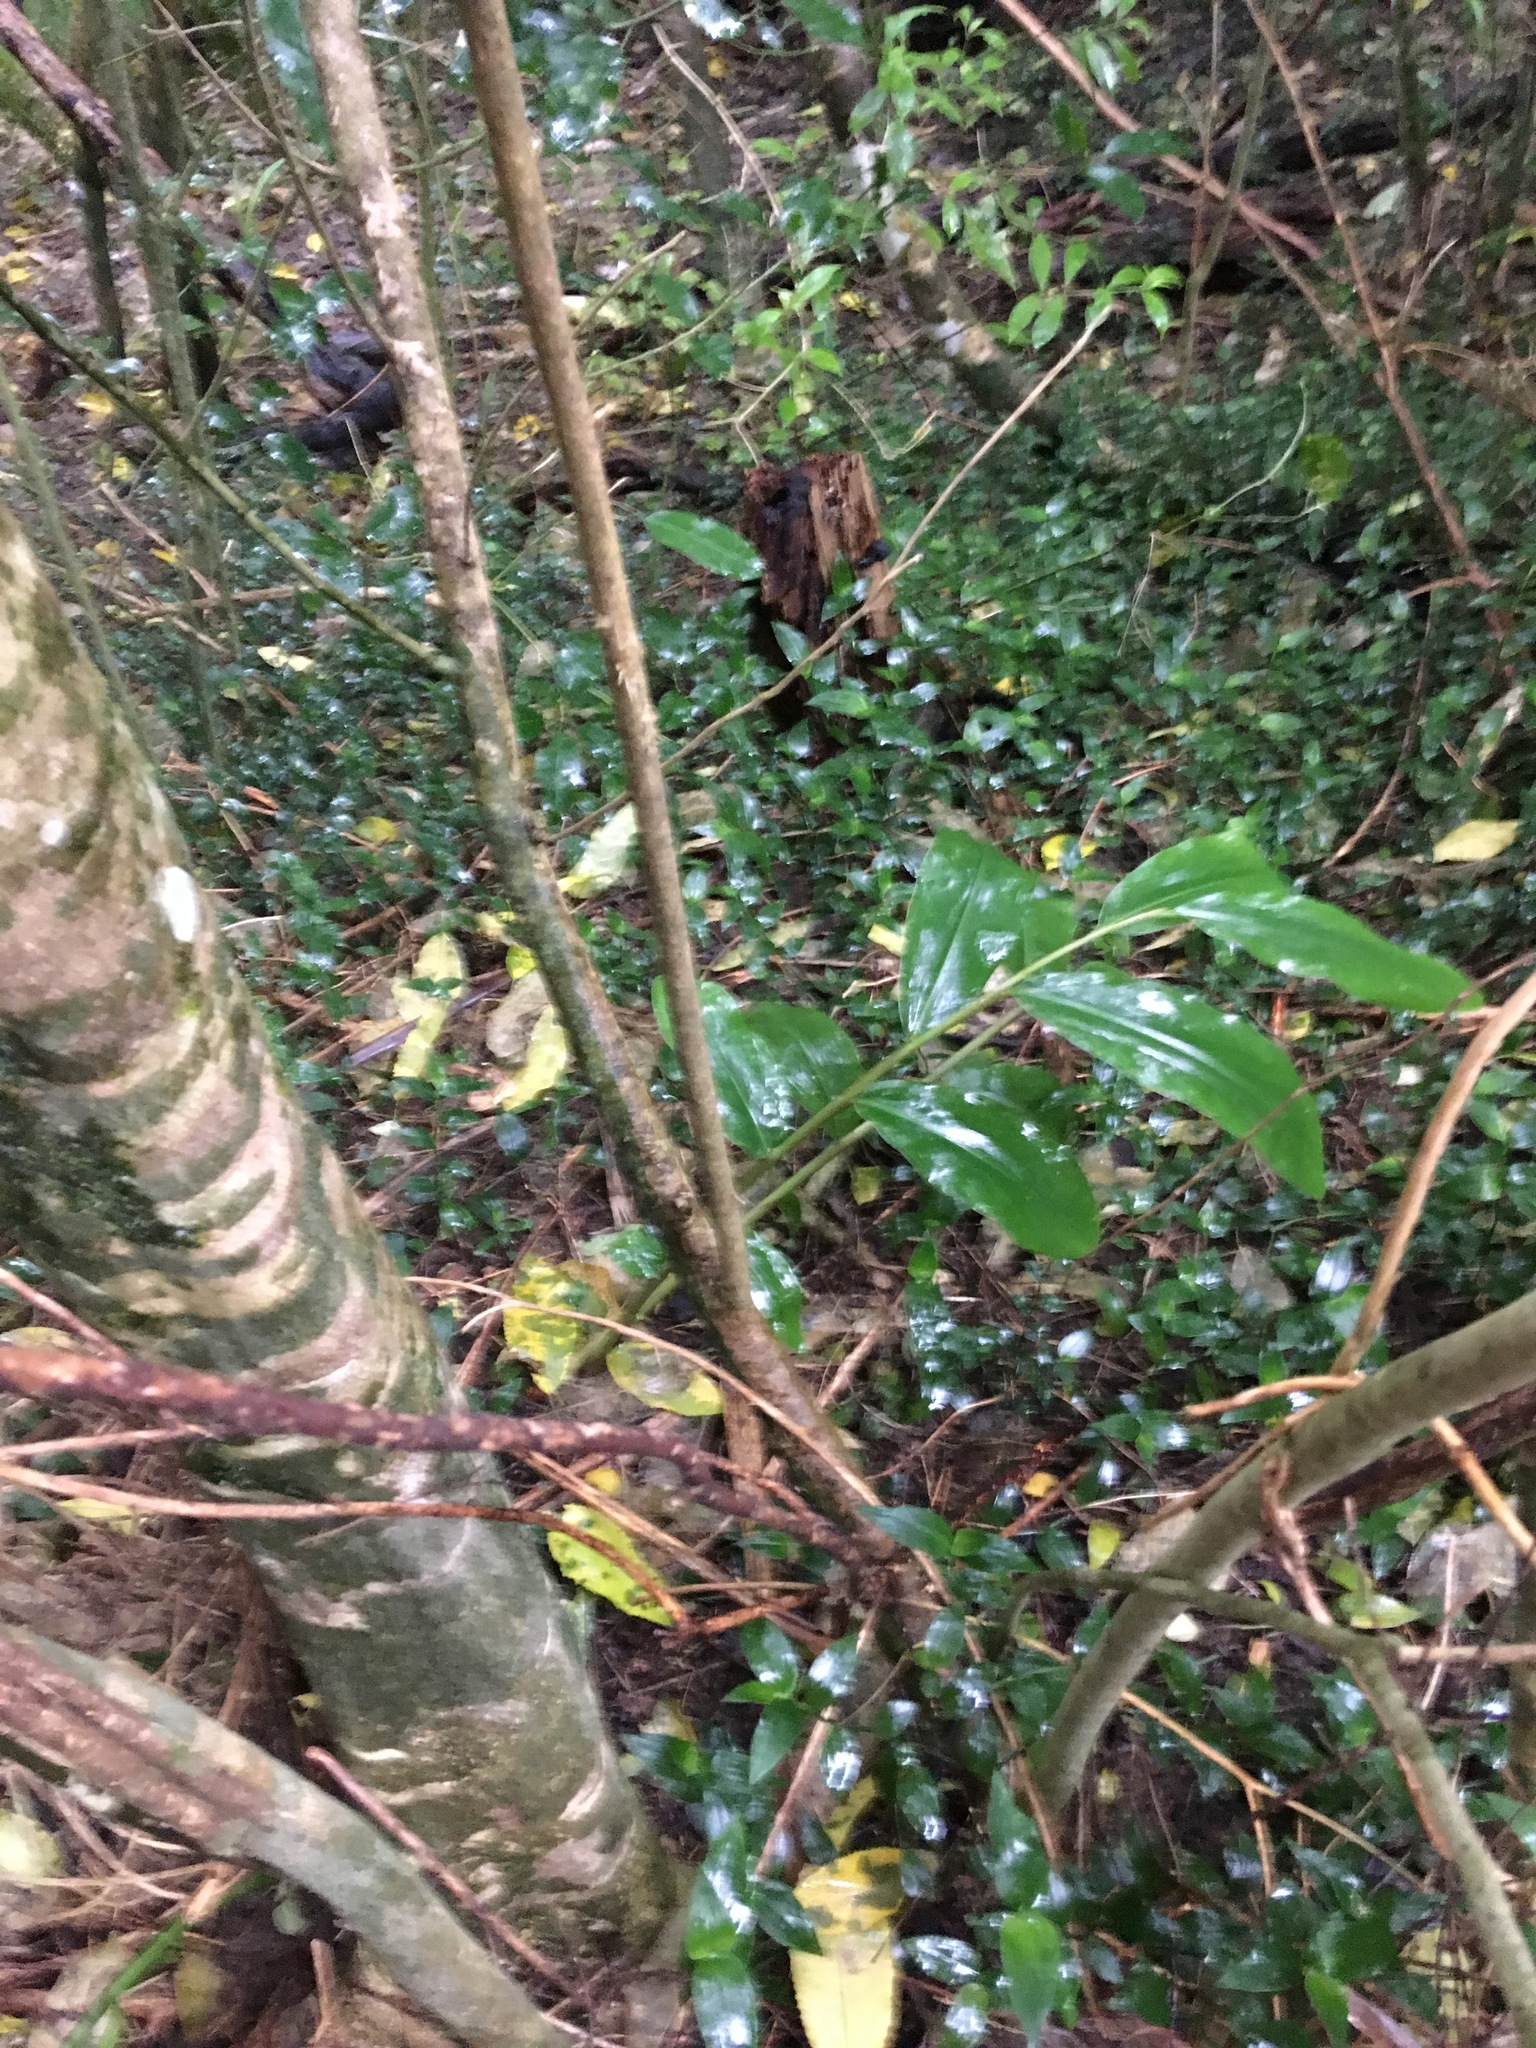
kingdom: Plantae
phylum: Tracheophyta
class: Liliopsida
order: Zingiberales
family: Zingiberaceae
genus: Hedychium
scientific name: Hedychium gardnerianum
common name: Himalayan ginger
